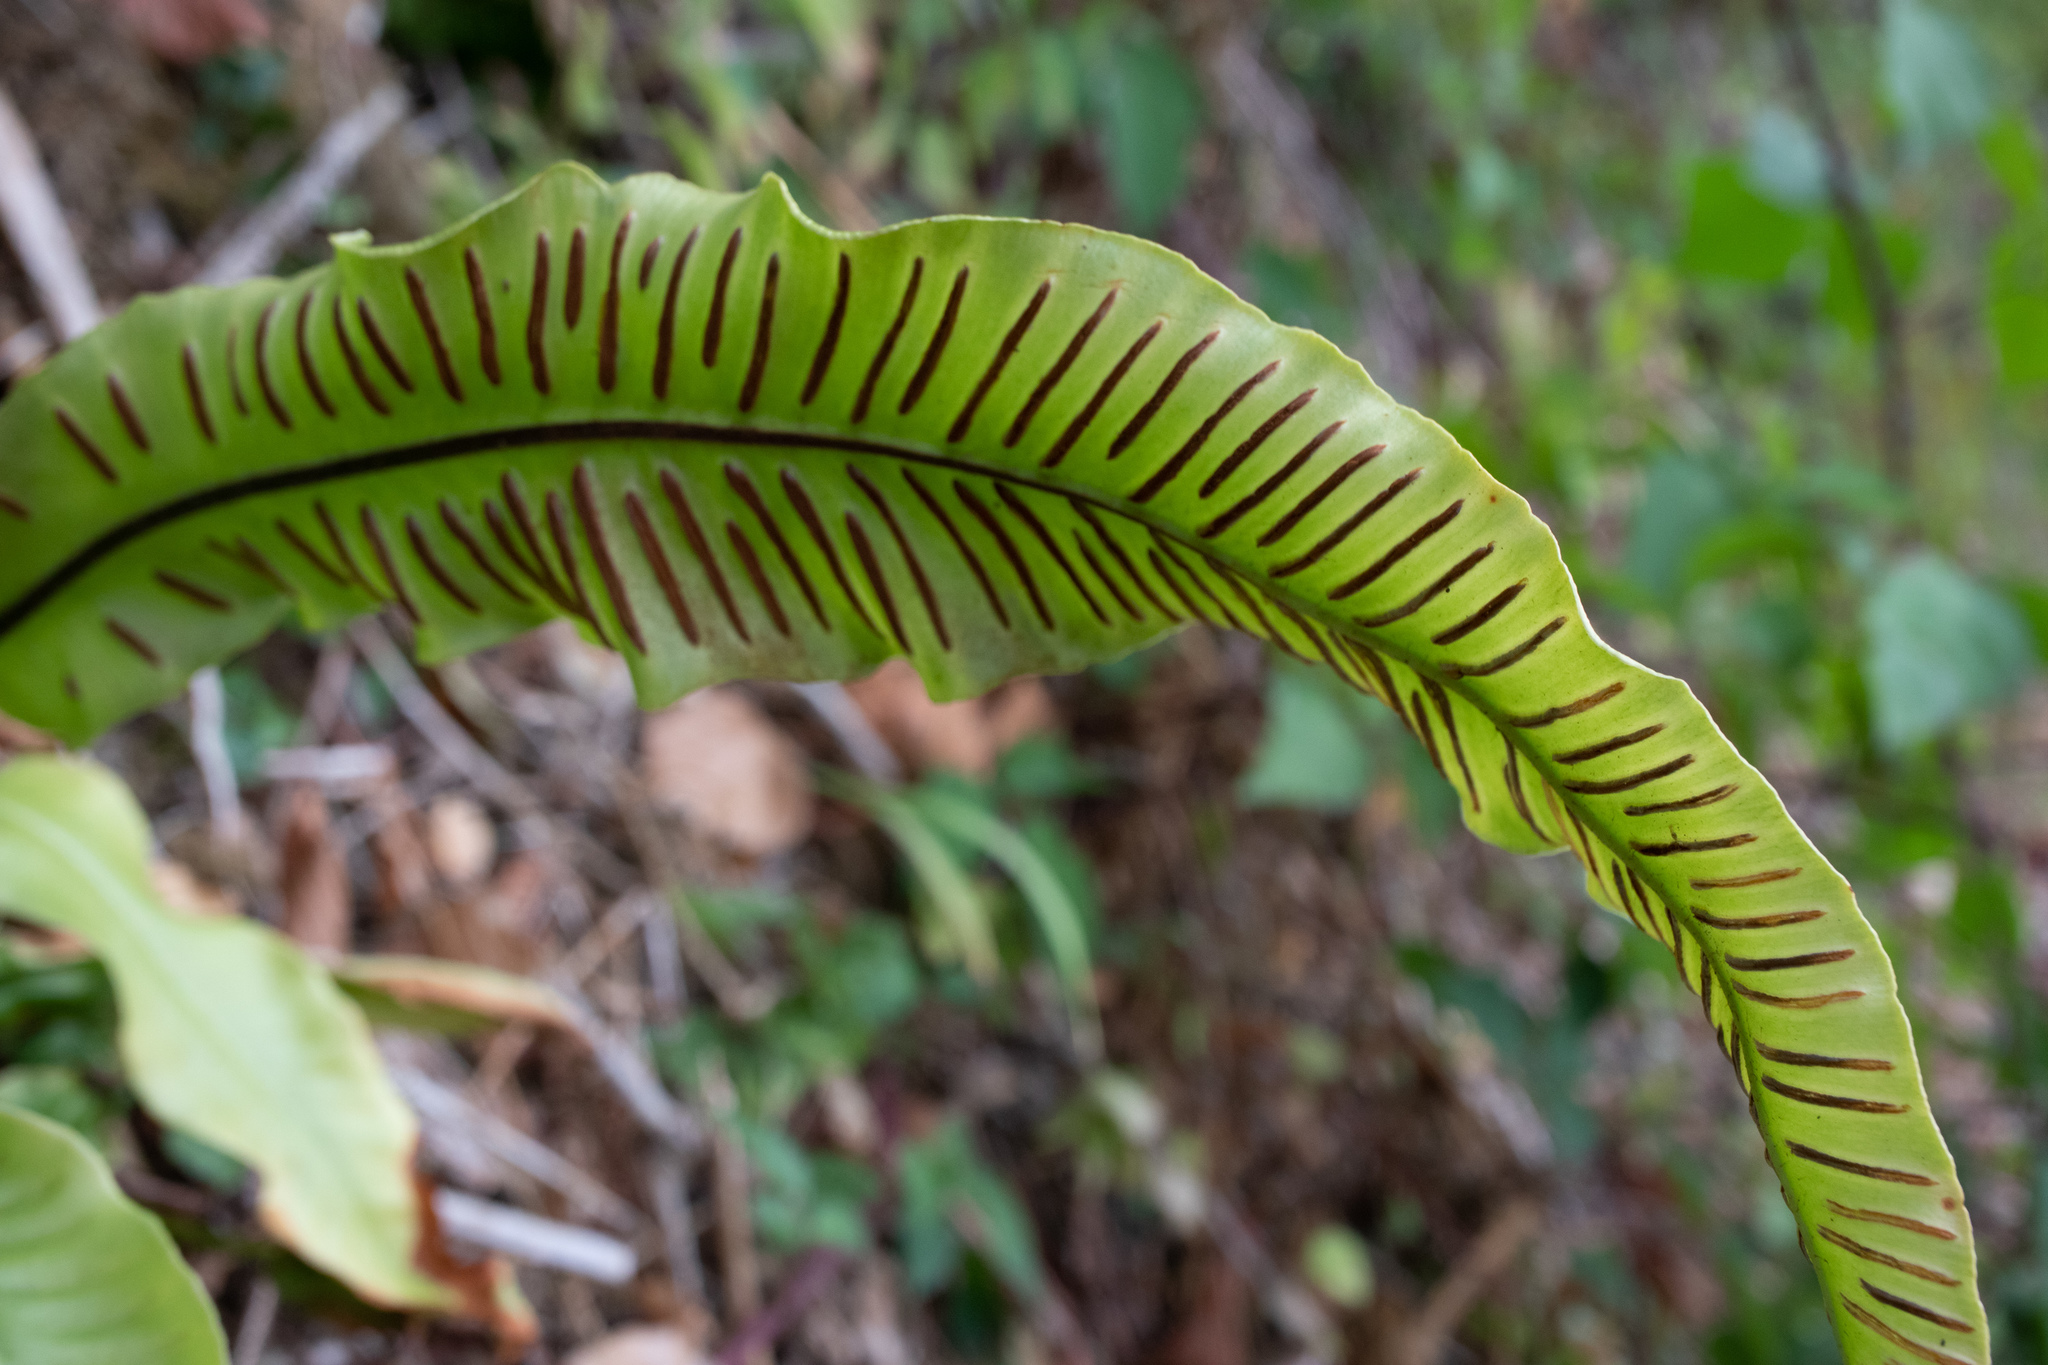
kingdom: Plantae
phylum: Tracheophyta
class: Polypodiopsida
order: Polypodiales
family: Aspleniaceae
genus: Asplenium
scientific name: Asplenium scolopendrium
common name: Hart's-tongue fern
